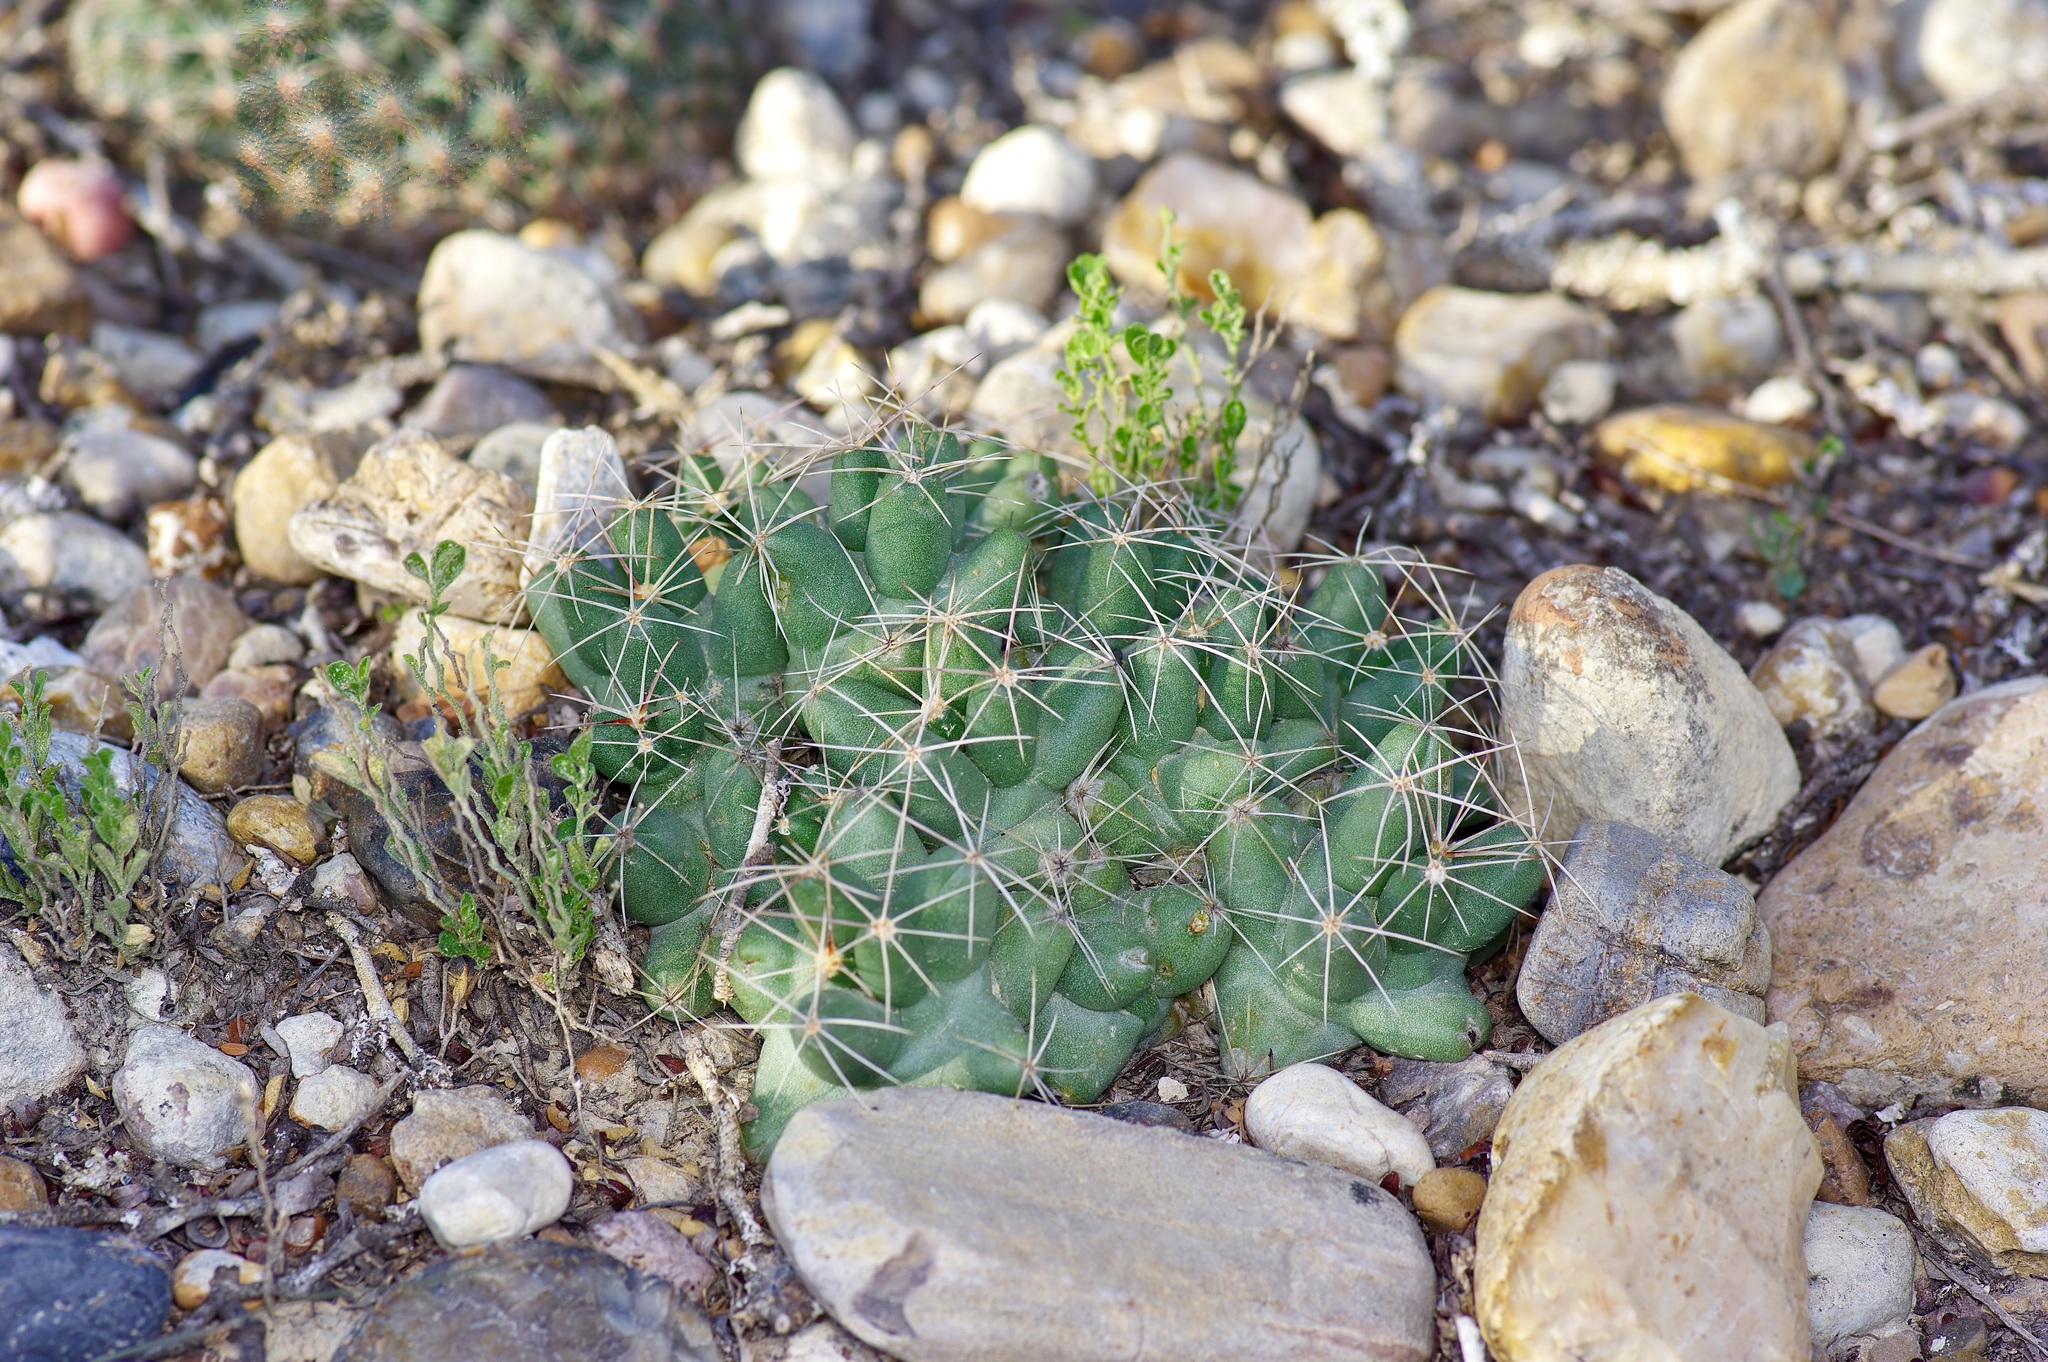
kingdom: Plantae
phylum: Tracheophyta
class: Magnoliopsida
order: Caryophyllales
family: Cactaceae
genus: Pelecyphora
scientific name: Pelecyphora macromeris
